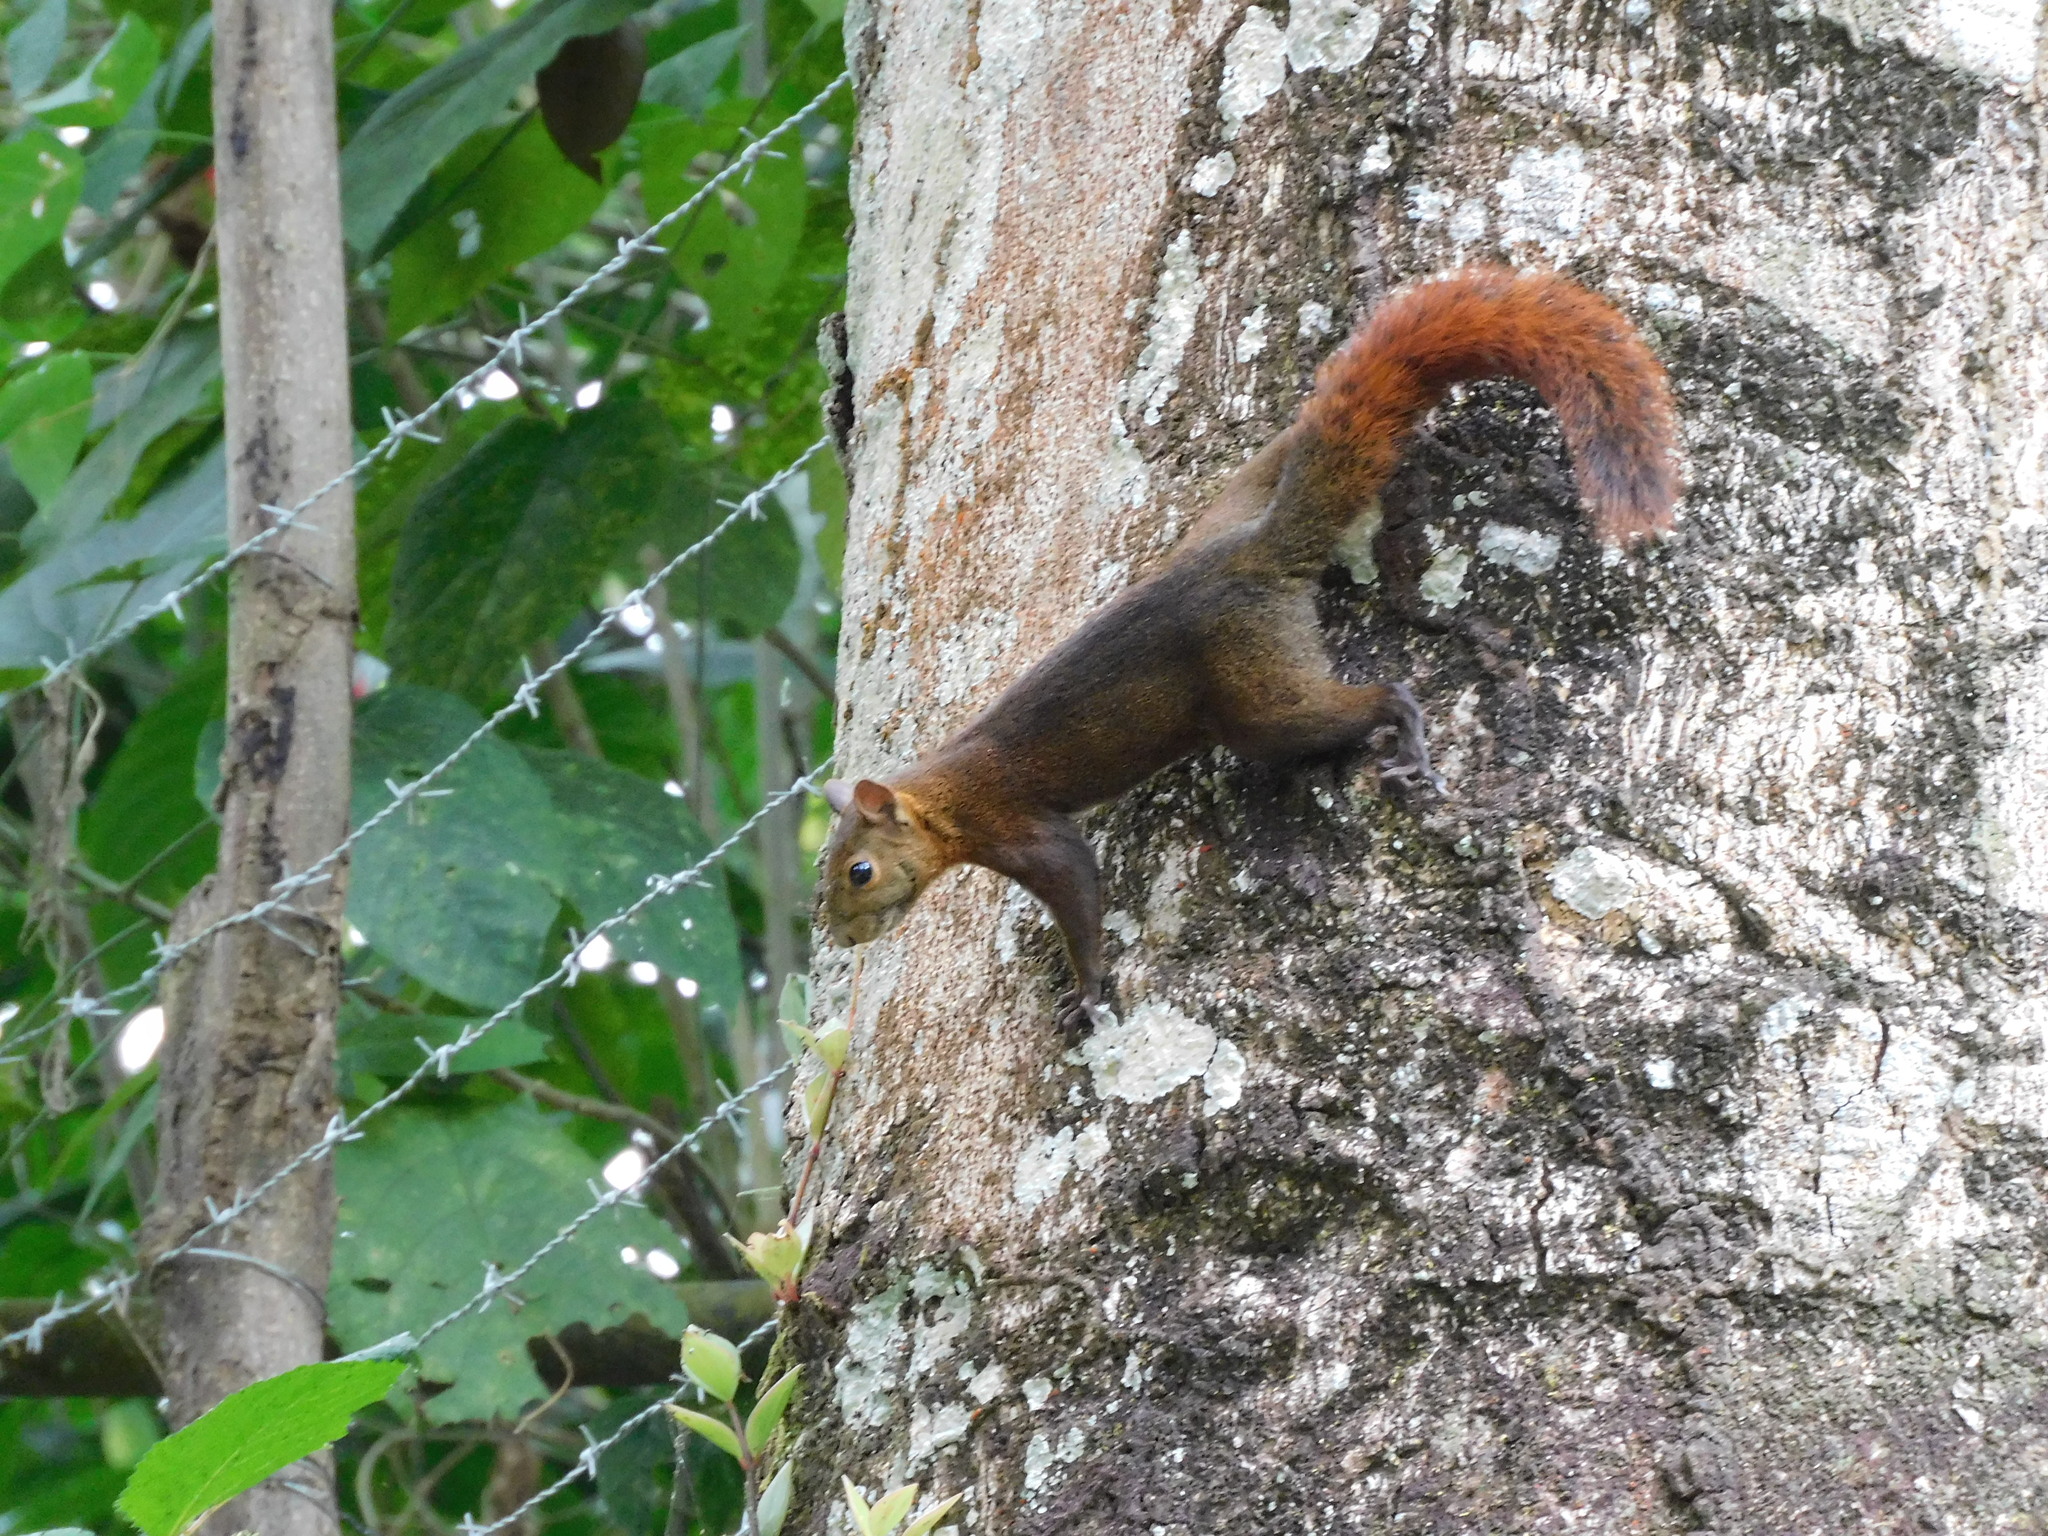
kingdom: Animalia
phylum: Chordata
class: Mammalia
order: Rodentia
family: Sciuridae
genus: Sciurus
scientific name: Sciurus granatensis
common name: Red-tailed squirrel
